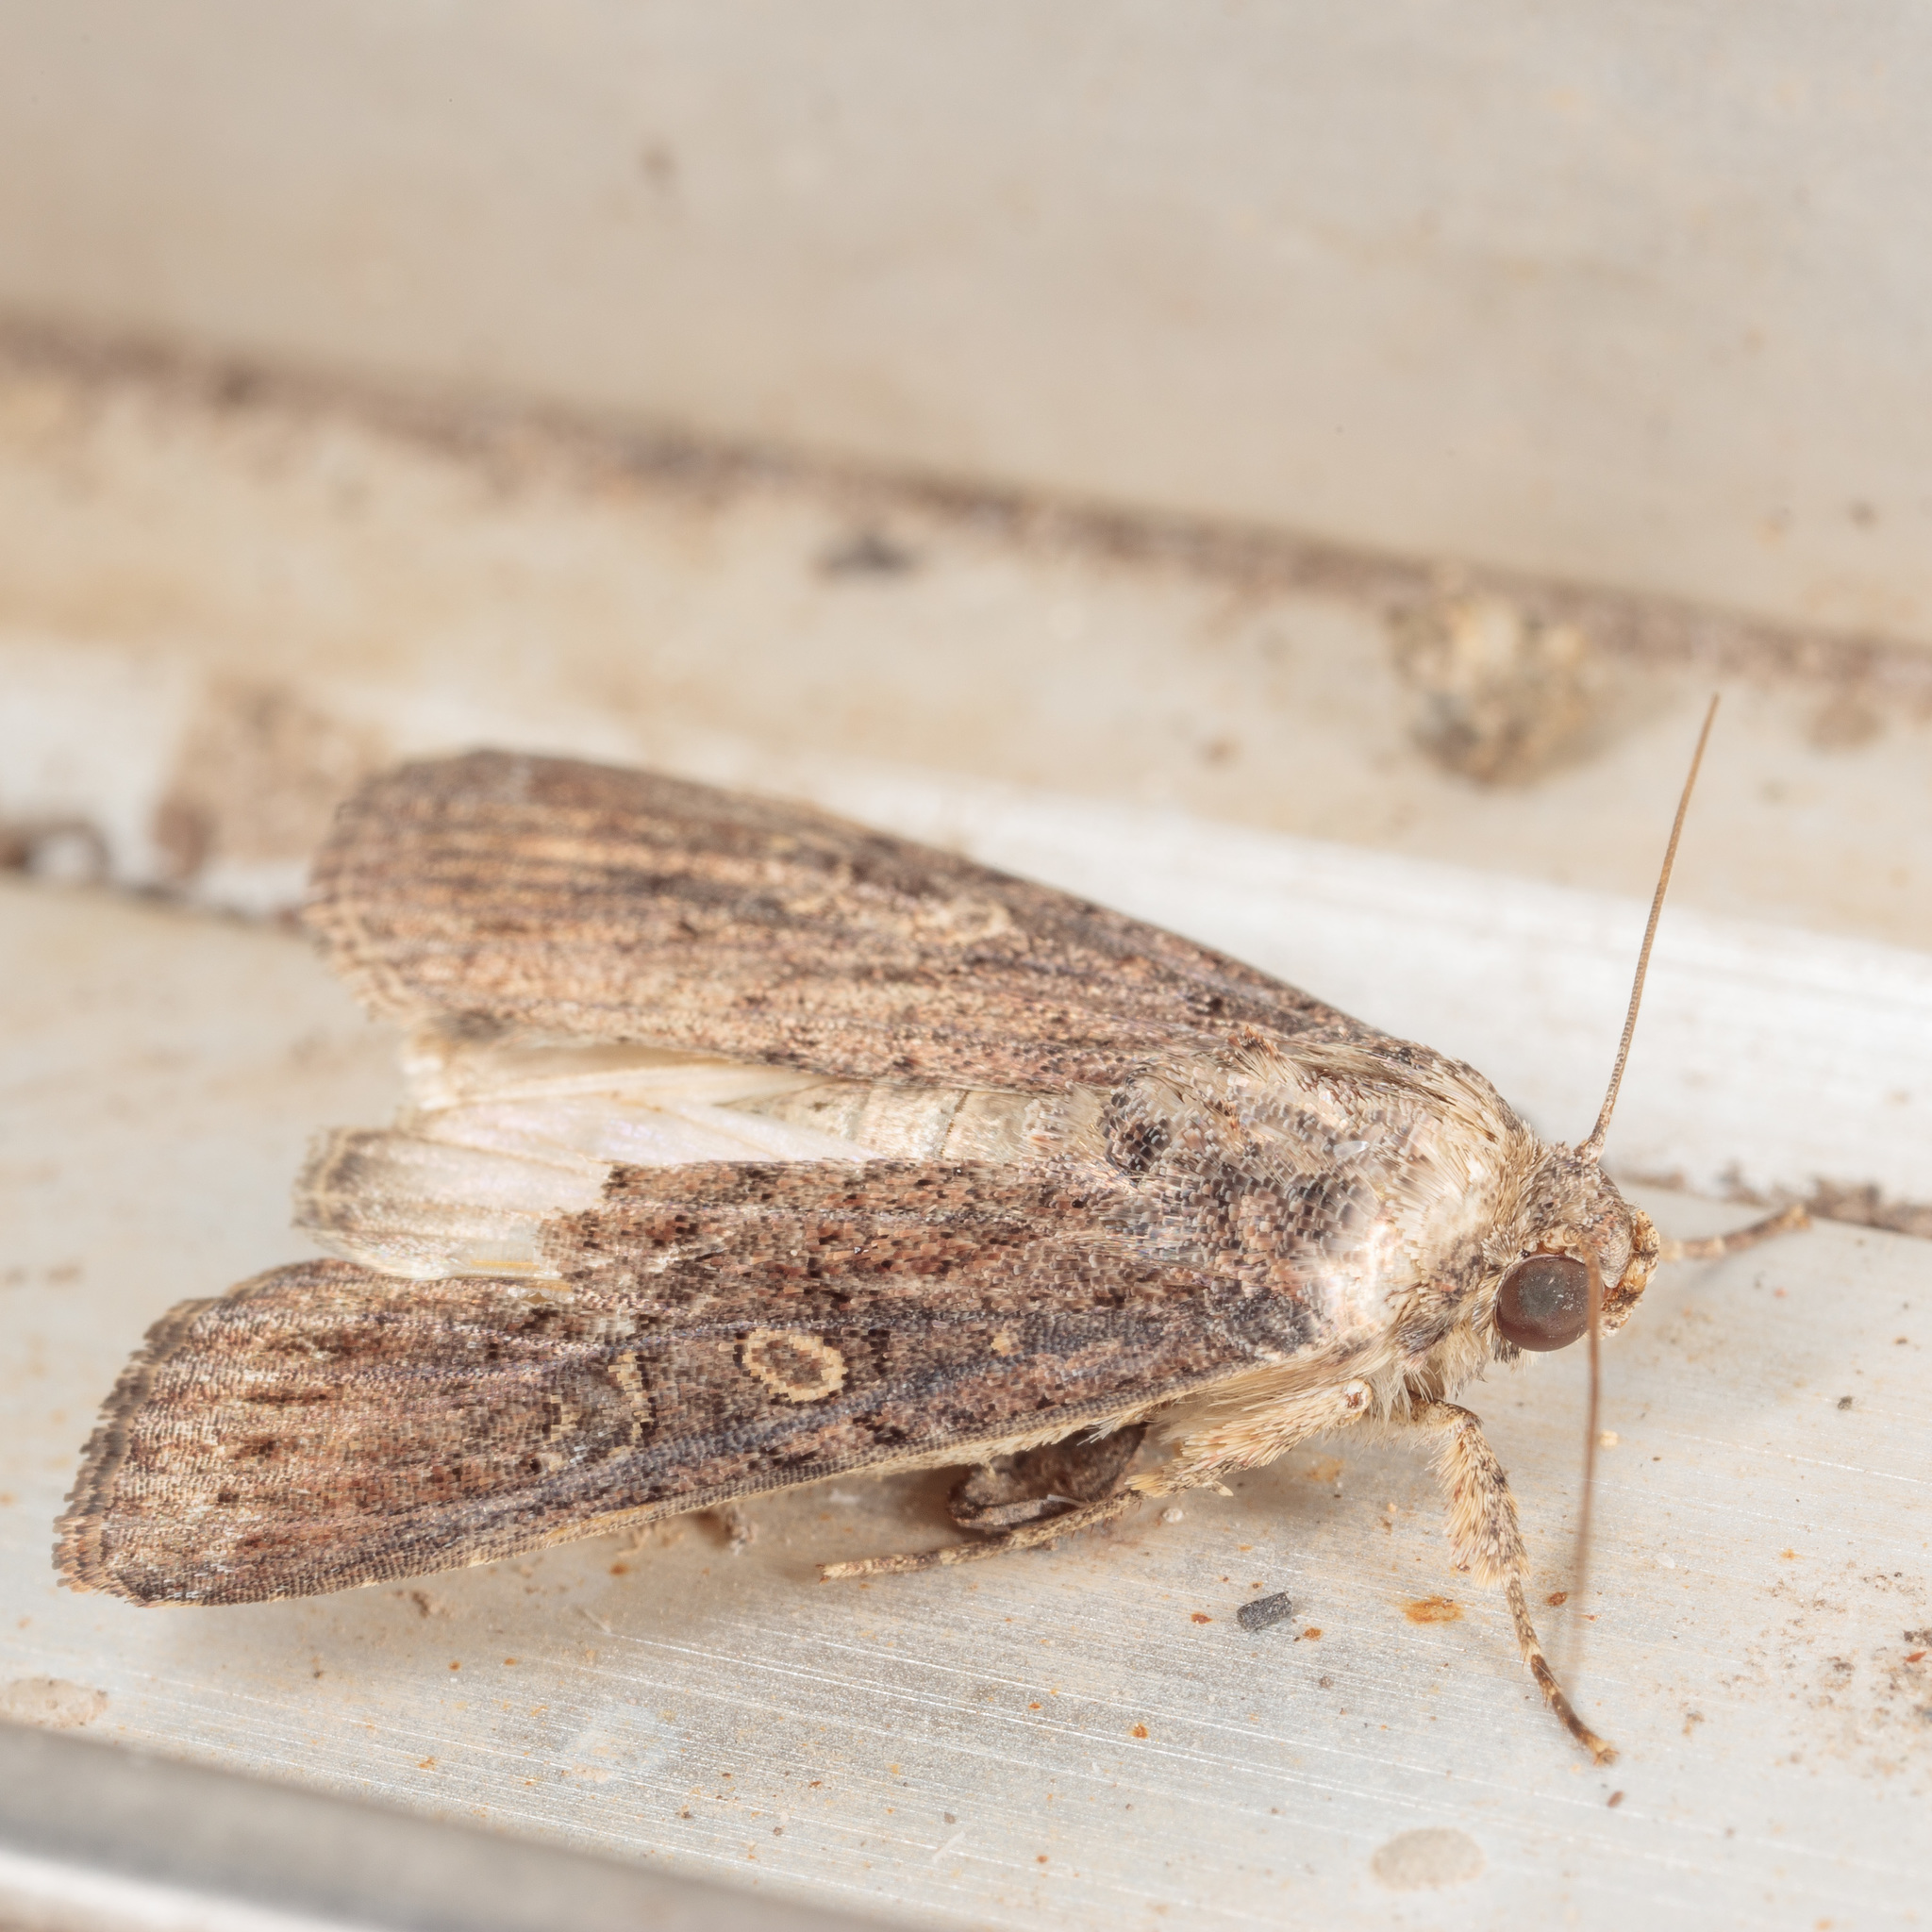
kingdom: Animalia
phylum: Arthropoda
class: Insecta
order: Lepidoptera
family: Noctuidae
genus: Spodoptera
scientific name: Spodoptera frugiperda
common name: Fall armyworm
